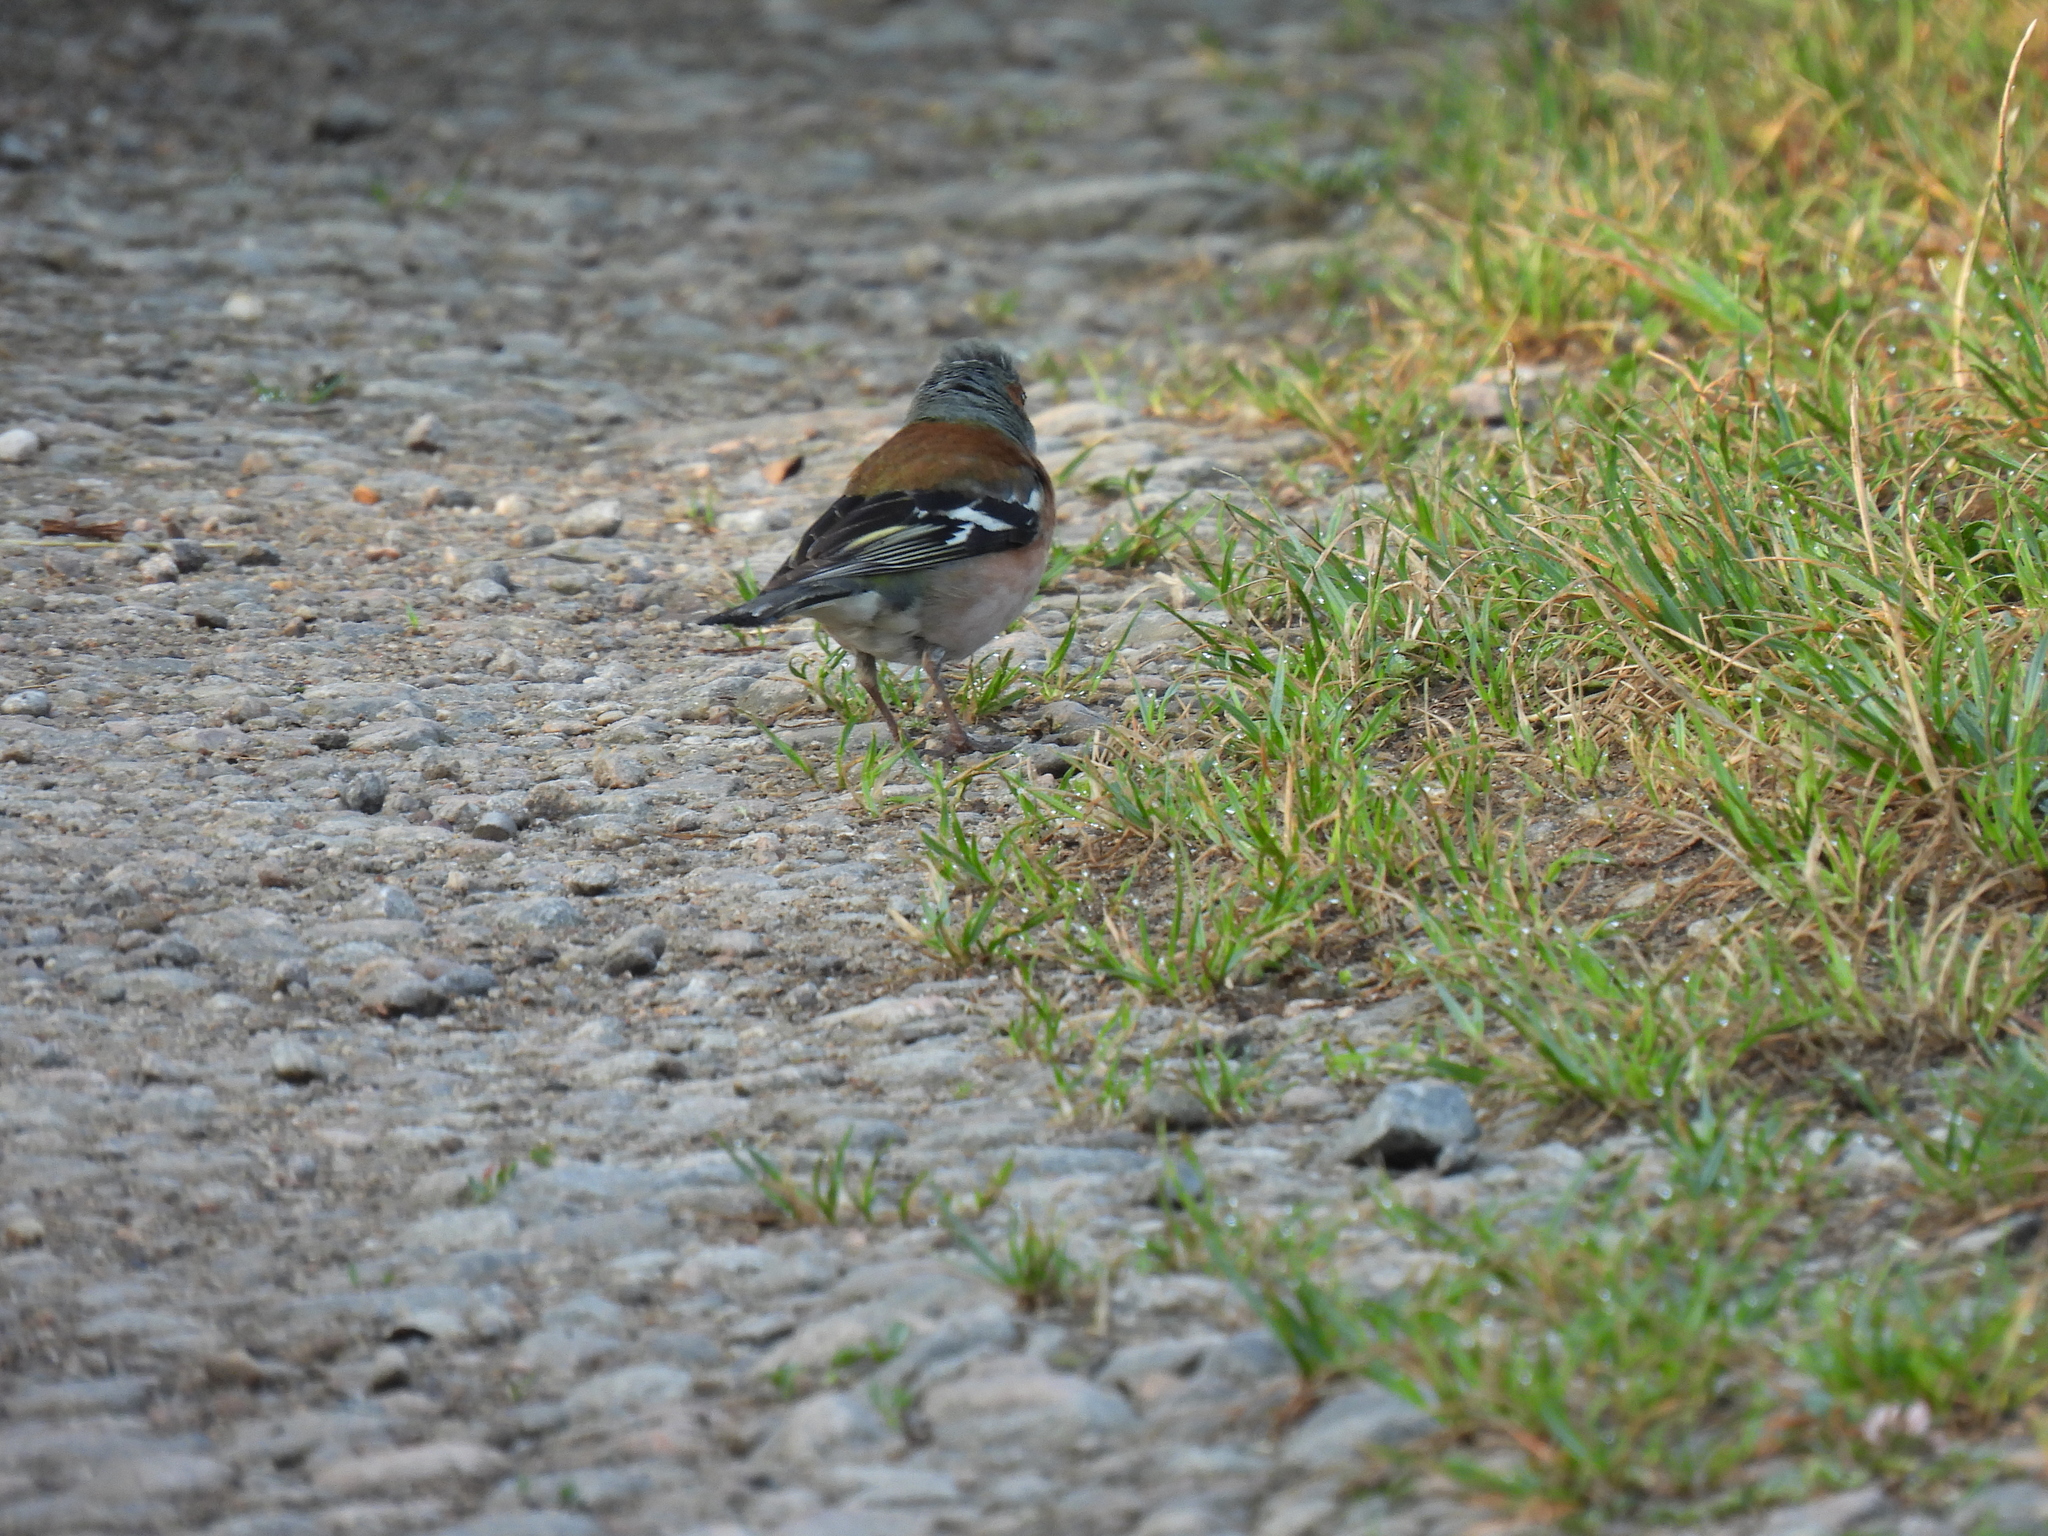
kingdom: Animalia
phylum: Chordata
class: Aves
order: Passeriformes
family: Fringillidae
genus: Fringilla
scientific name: Fringilla coelebs
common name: Common chaffinch
